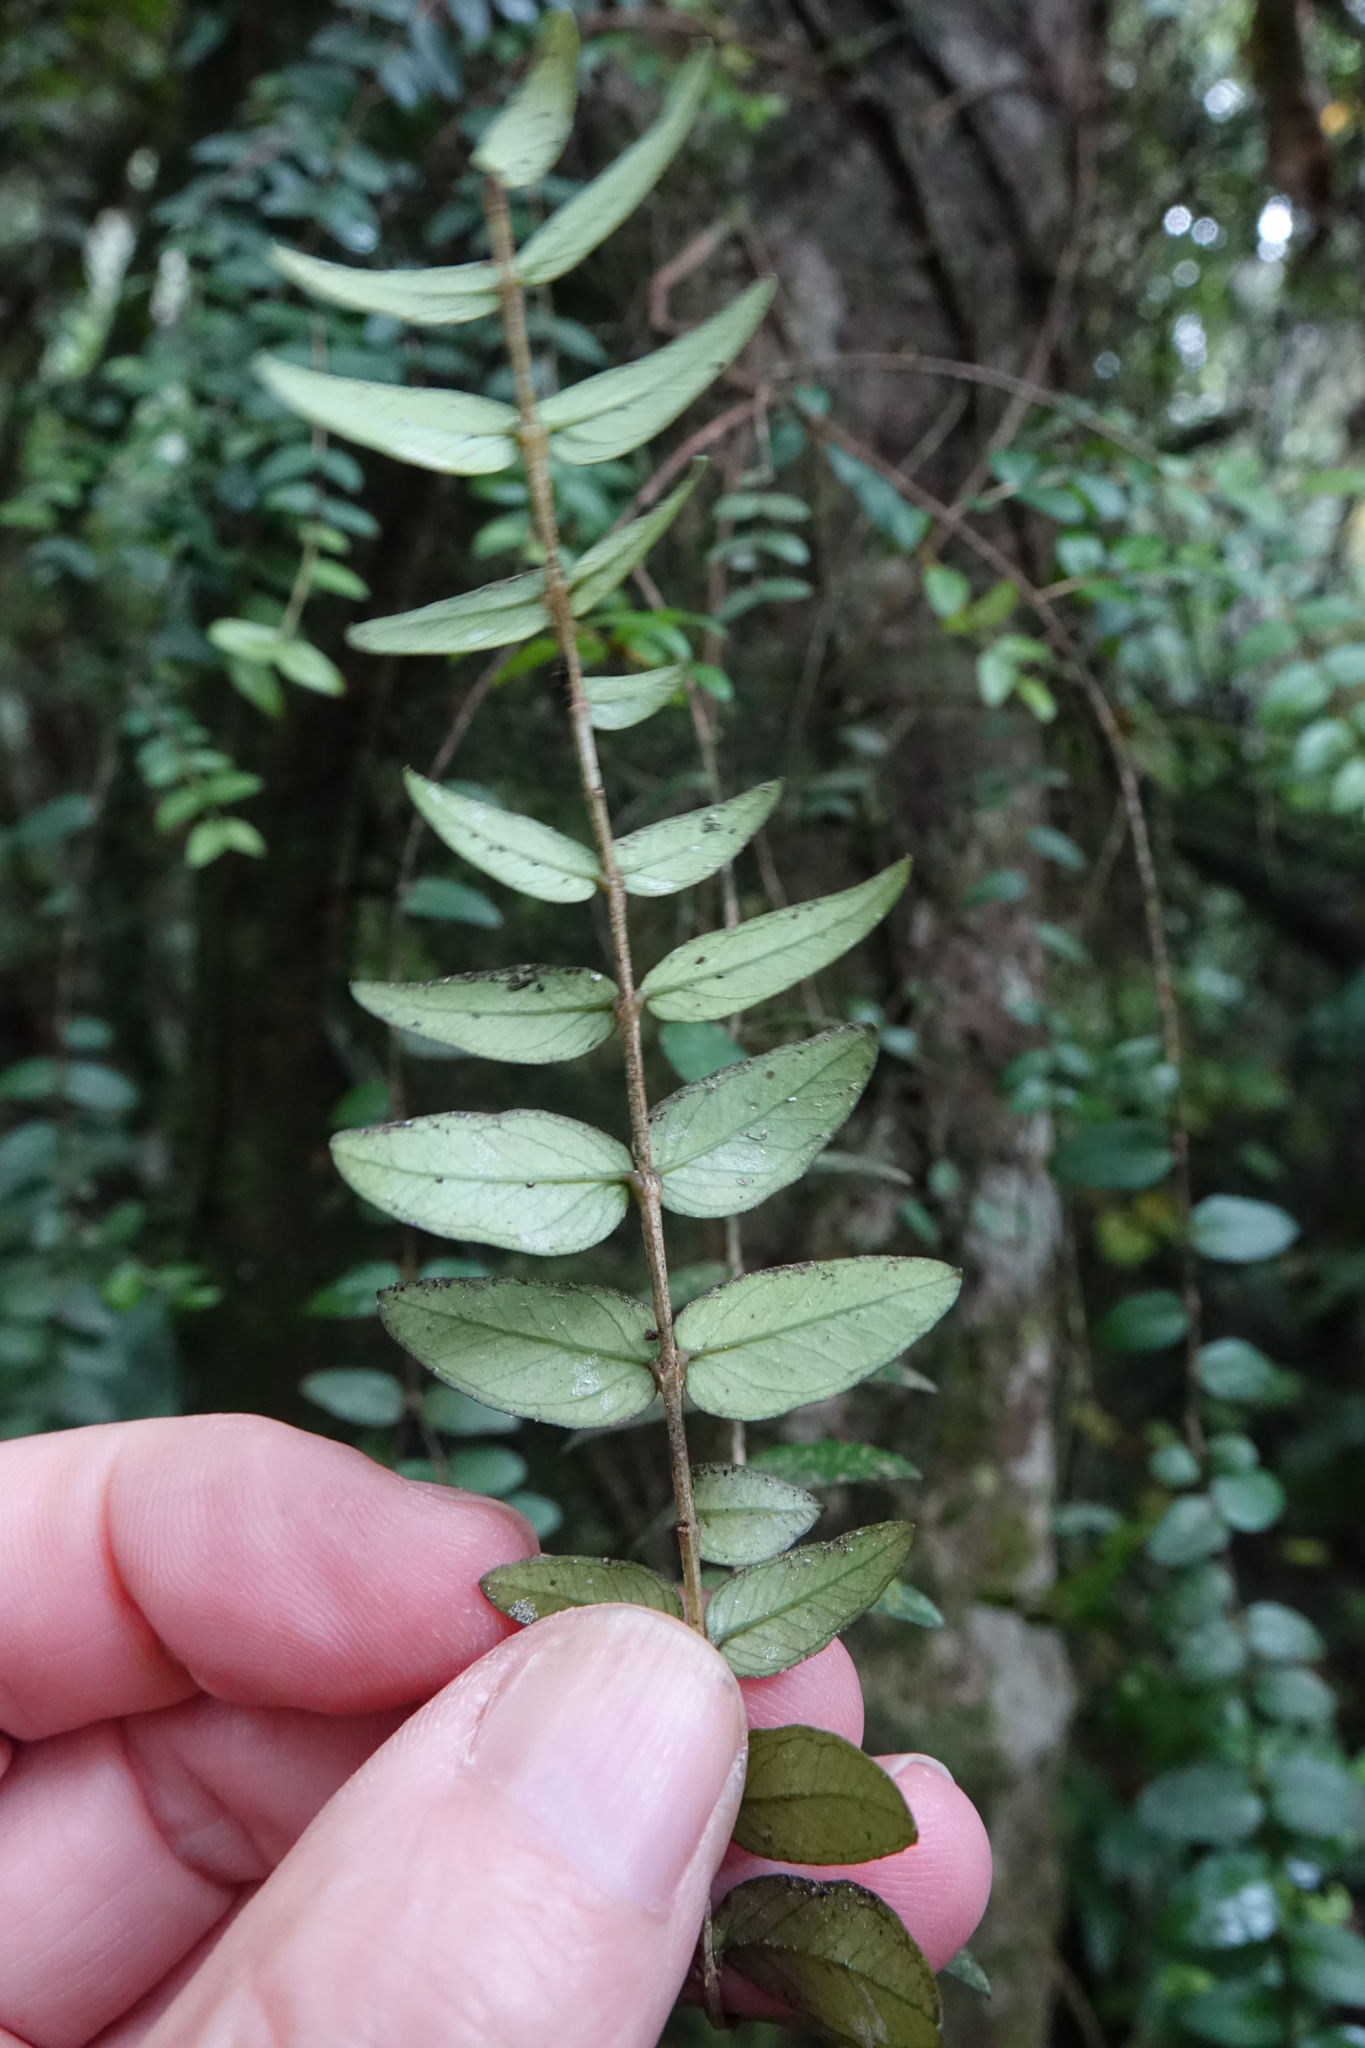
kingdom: Plantae
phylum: Tracheophyta
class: Magnoliopsida
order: Myrtales
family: Myrtaceae
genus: Metrosideros
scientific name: Metrosideros diffusa
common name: Small ratavine
